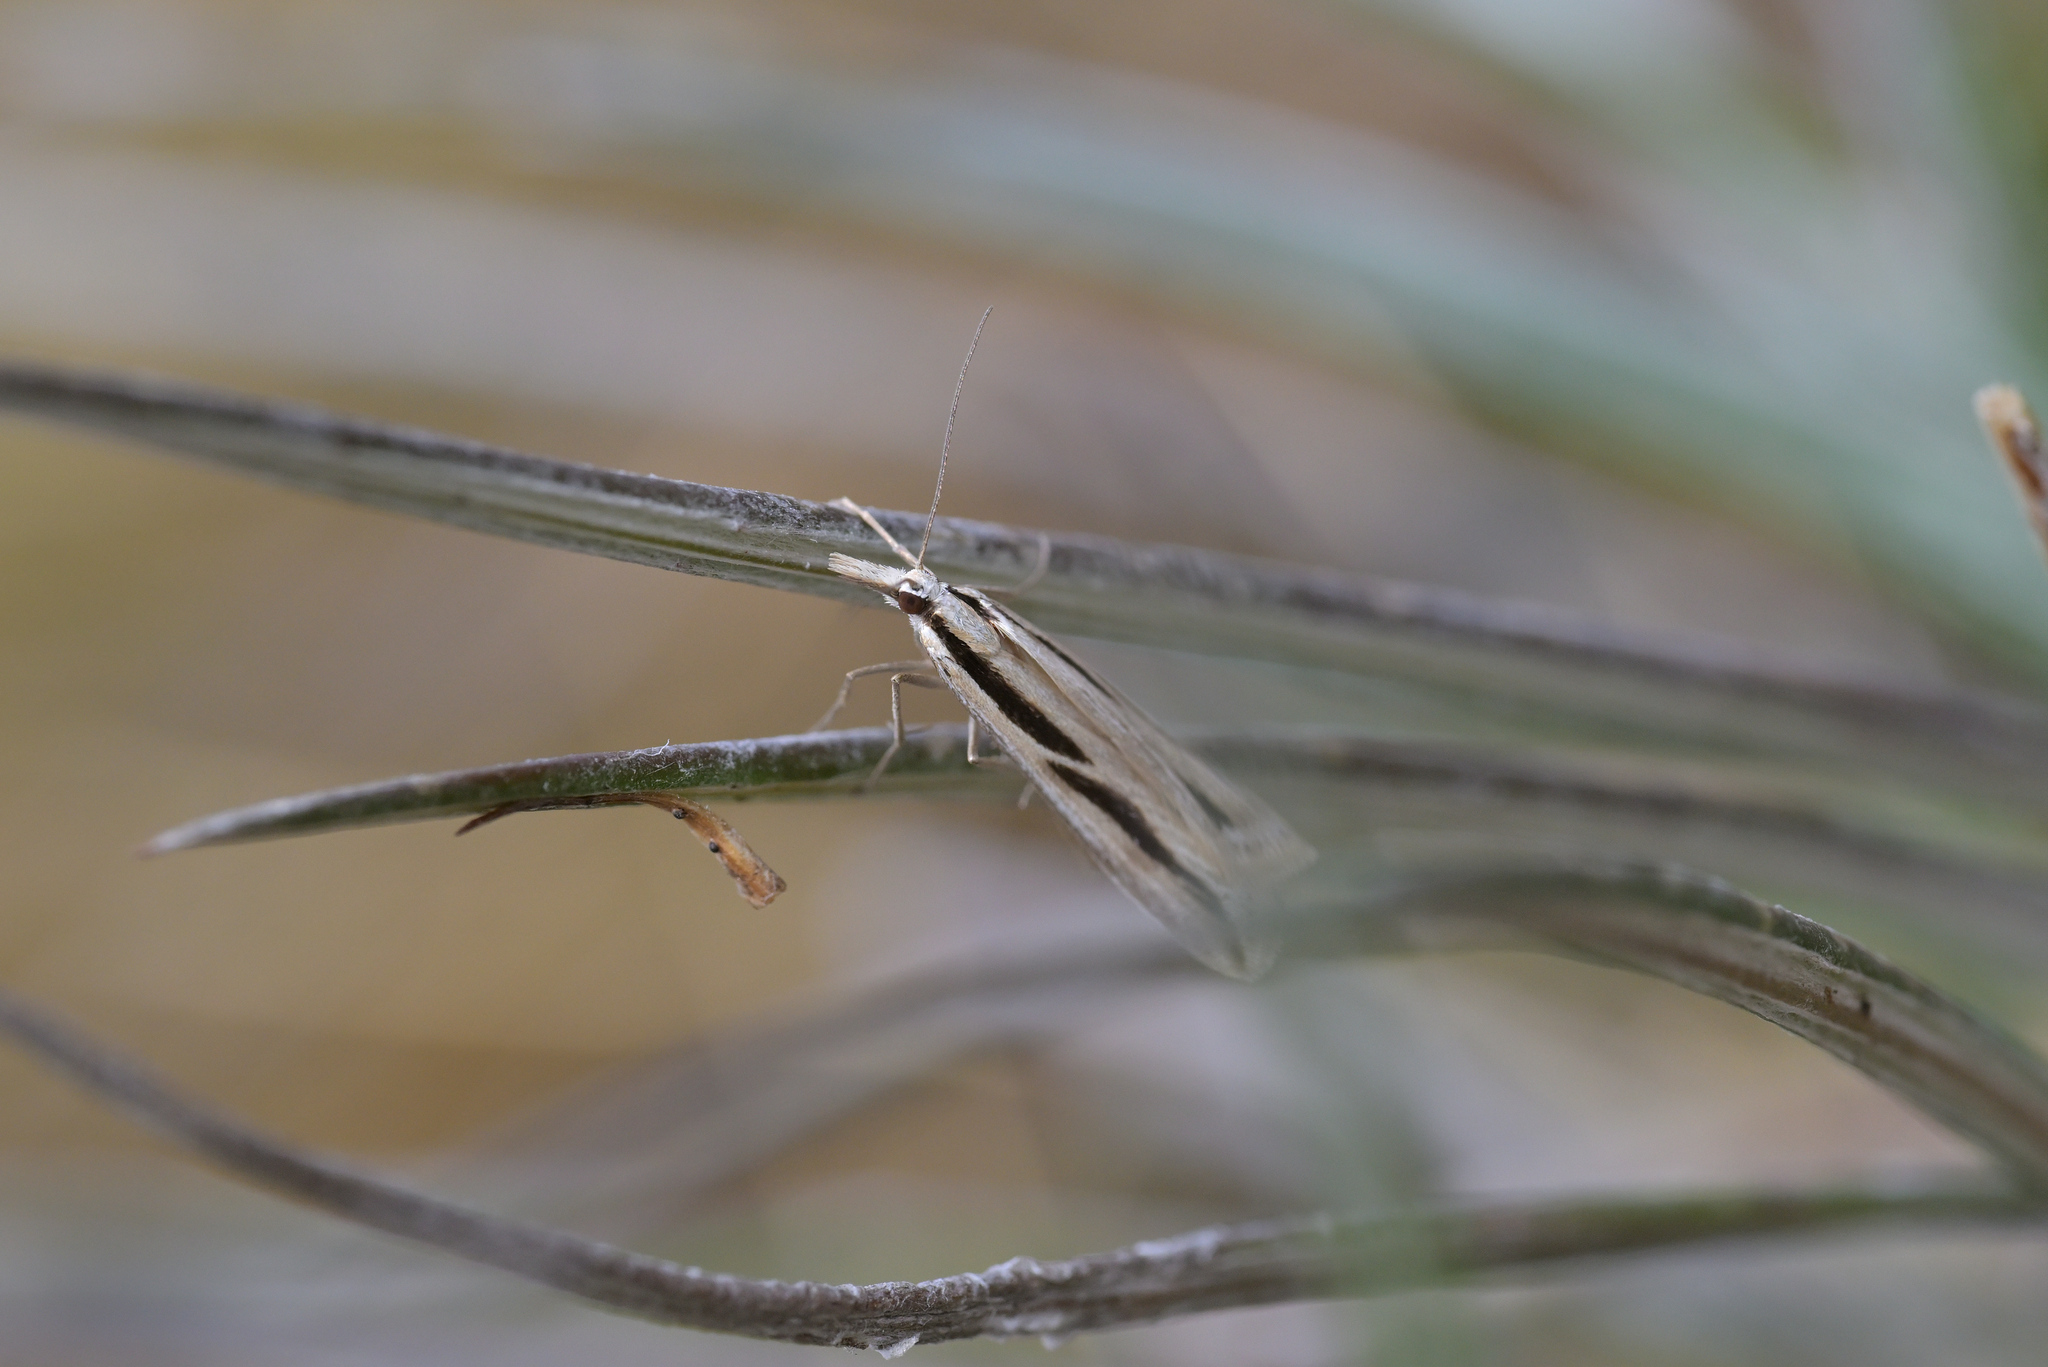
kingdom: Animalia
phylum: Arthropoda
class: Insecta
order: Lepidoptera
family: Crambidae
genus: Eudonia
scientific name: Eudonia trivirgata
